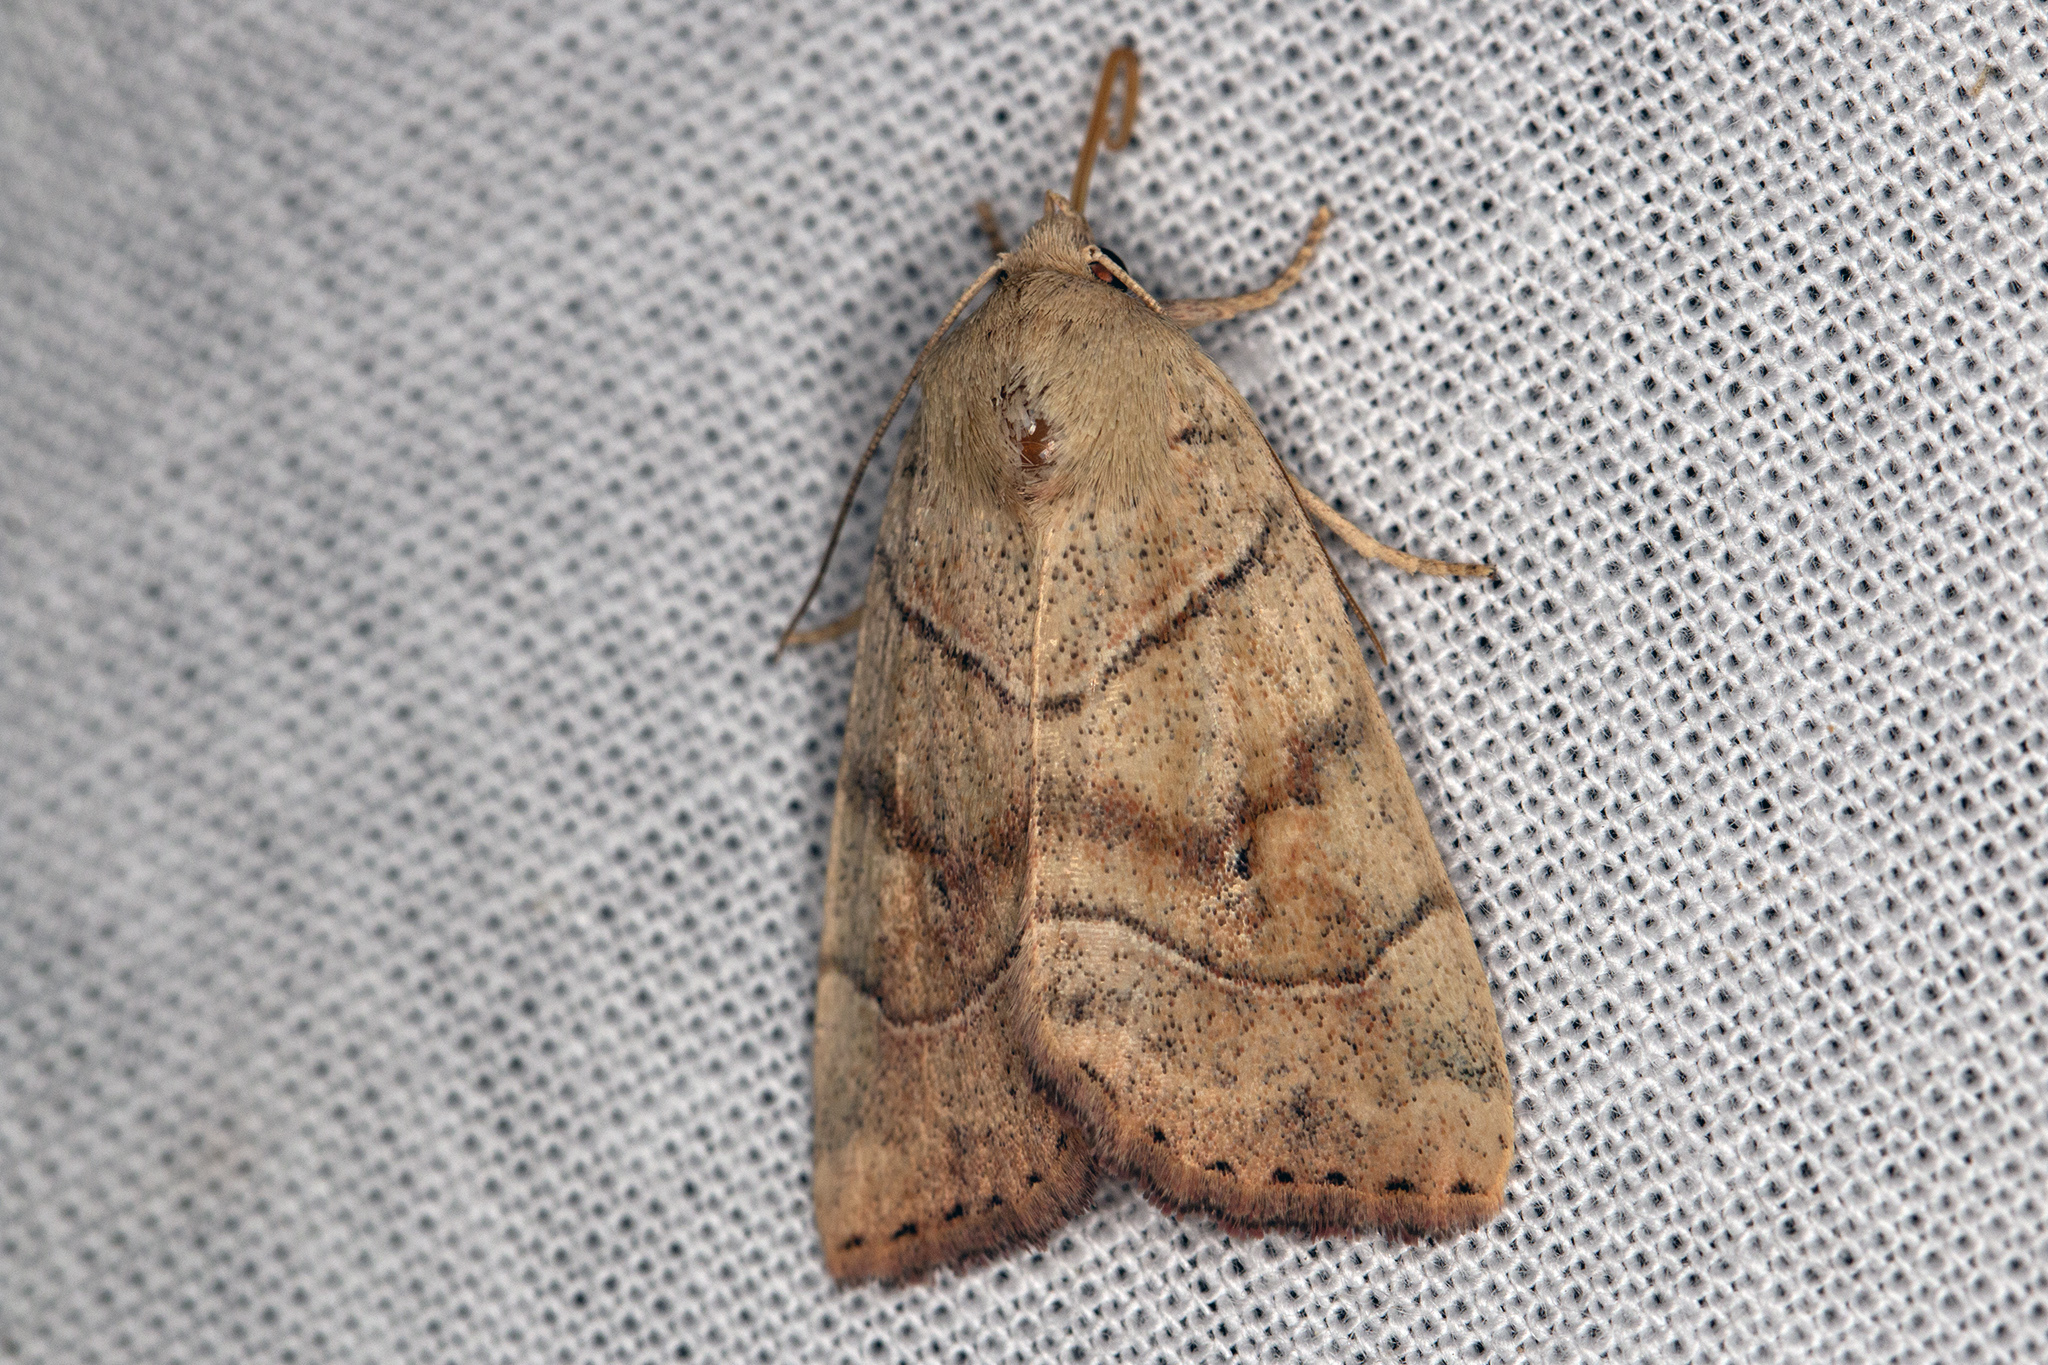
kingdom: Animalia
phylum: Arthropoda
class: Insecta
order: Lepidoptera
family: Noctuidae
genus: Cosmia
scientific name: Cosmia trapezina
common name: Dun-bar
